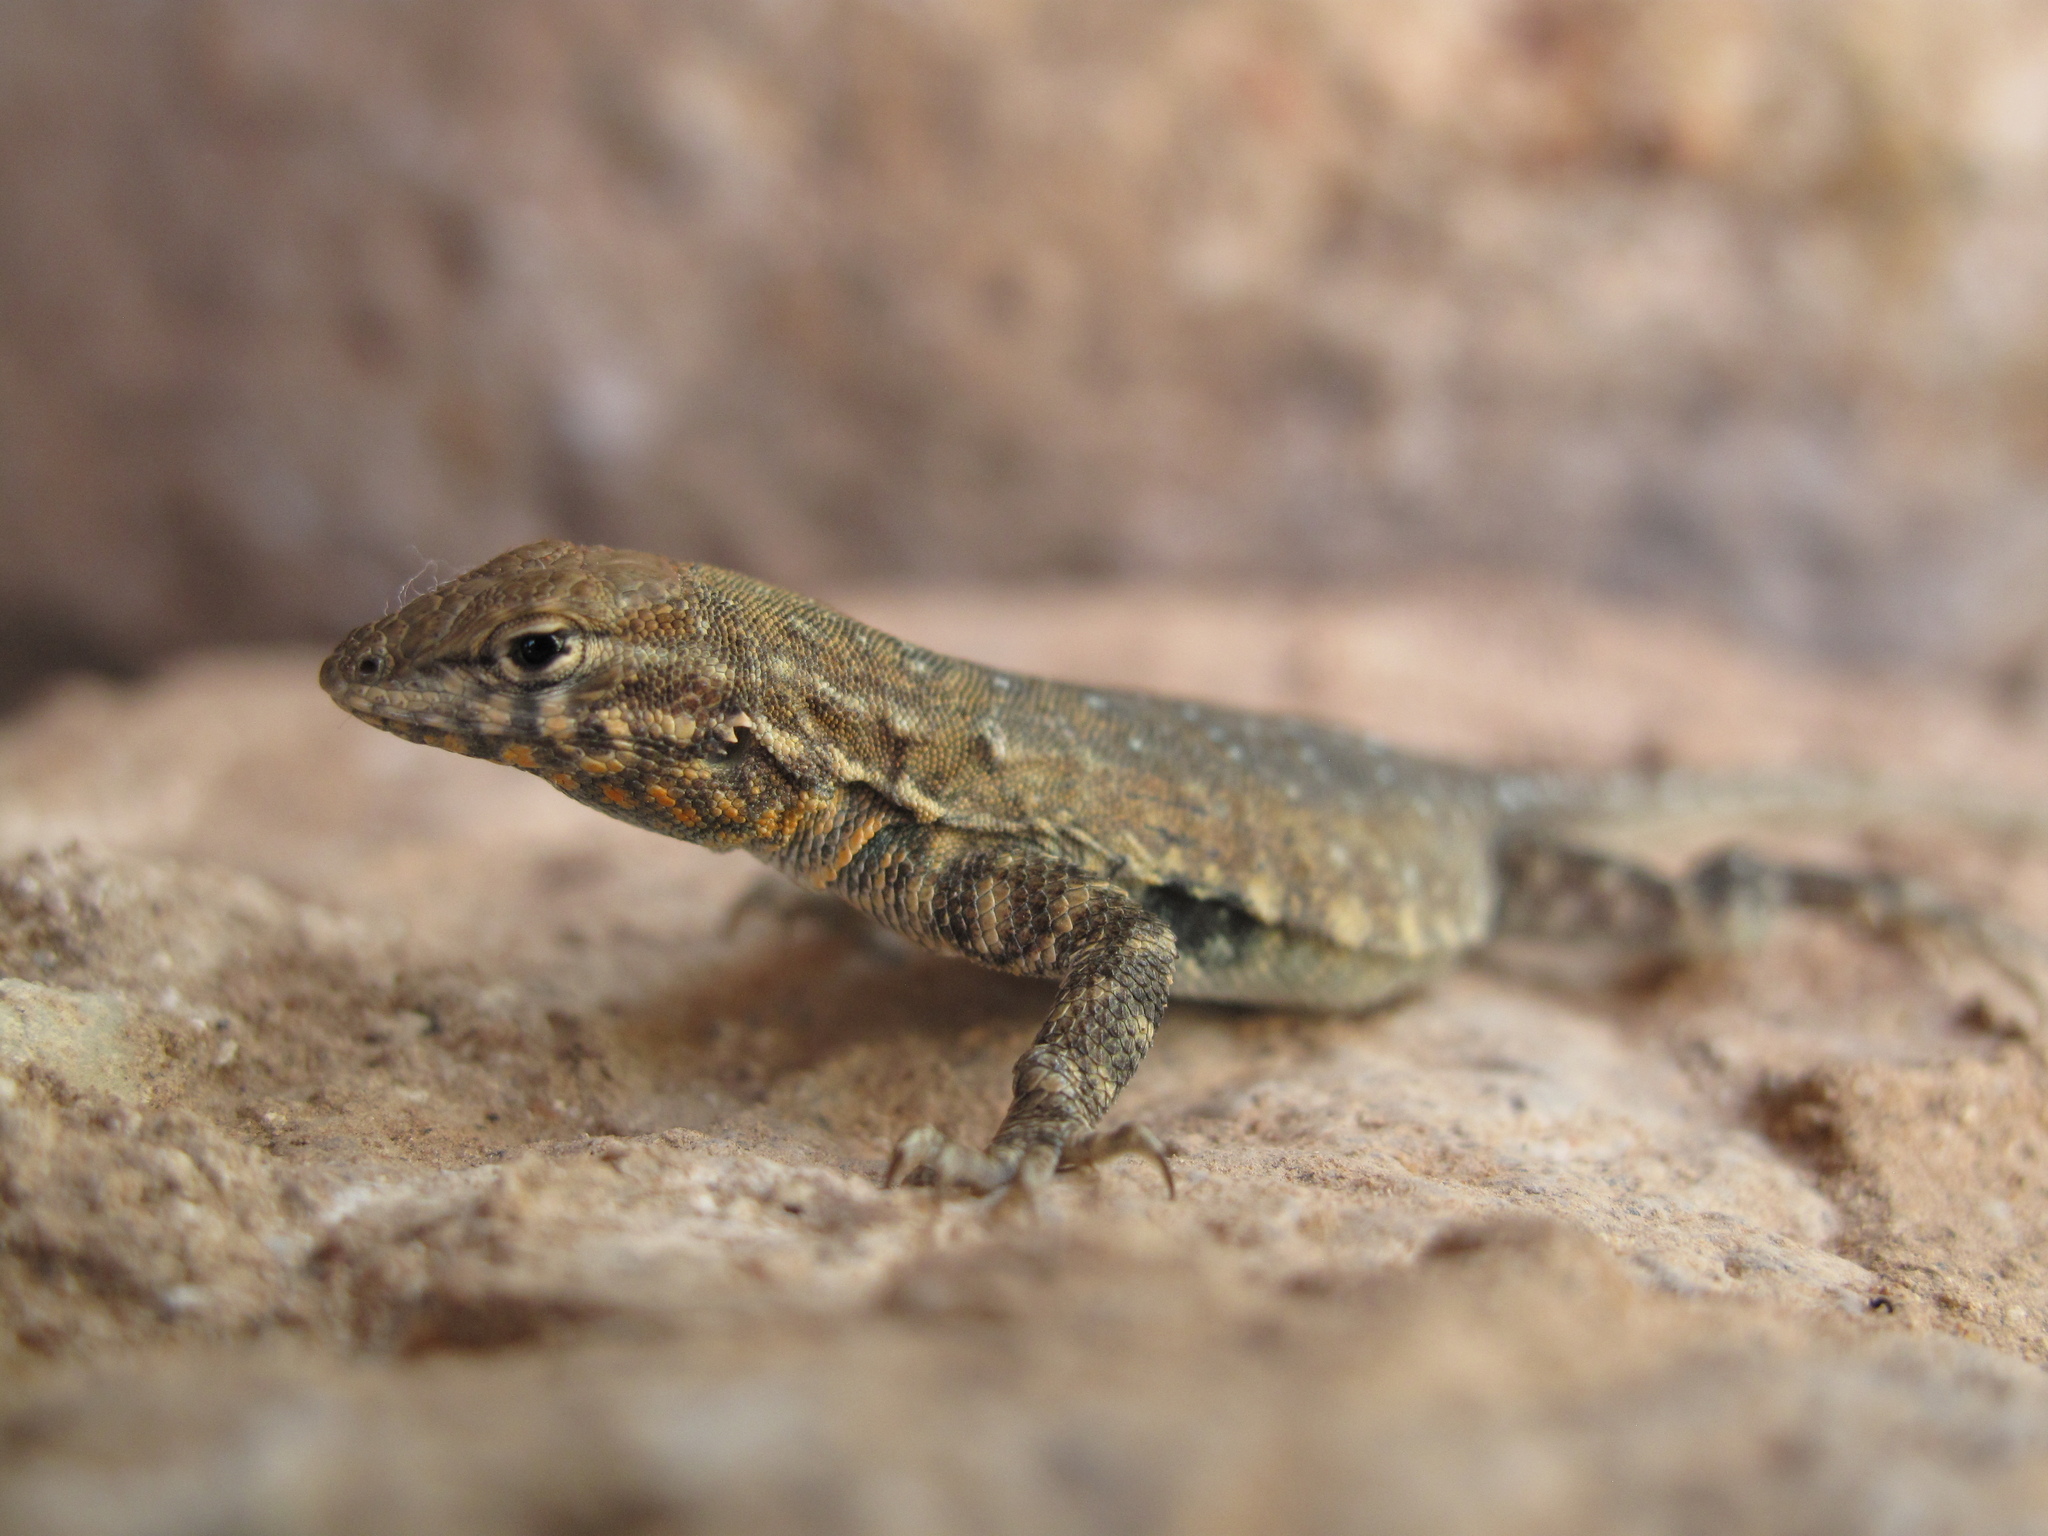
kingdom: Animalia
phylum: Chordata
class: Squamata
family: Phrynosomatidae
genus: Uta
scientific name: Uta stansburiana
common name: Side-blotched lizard
